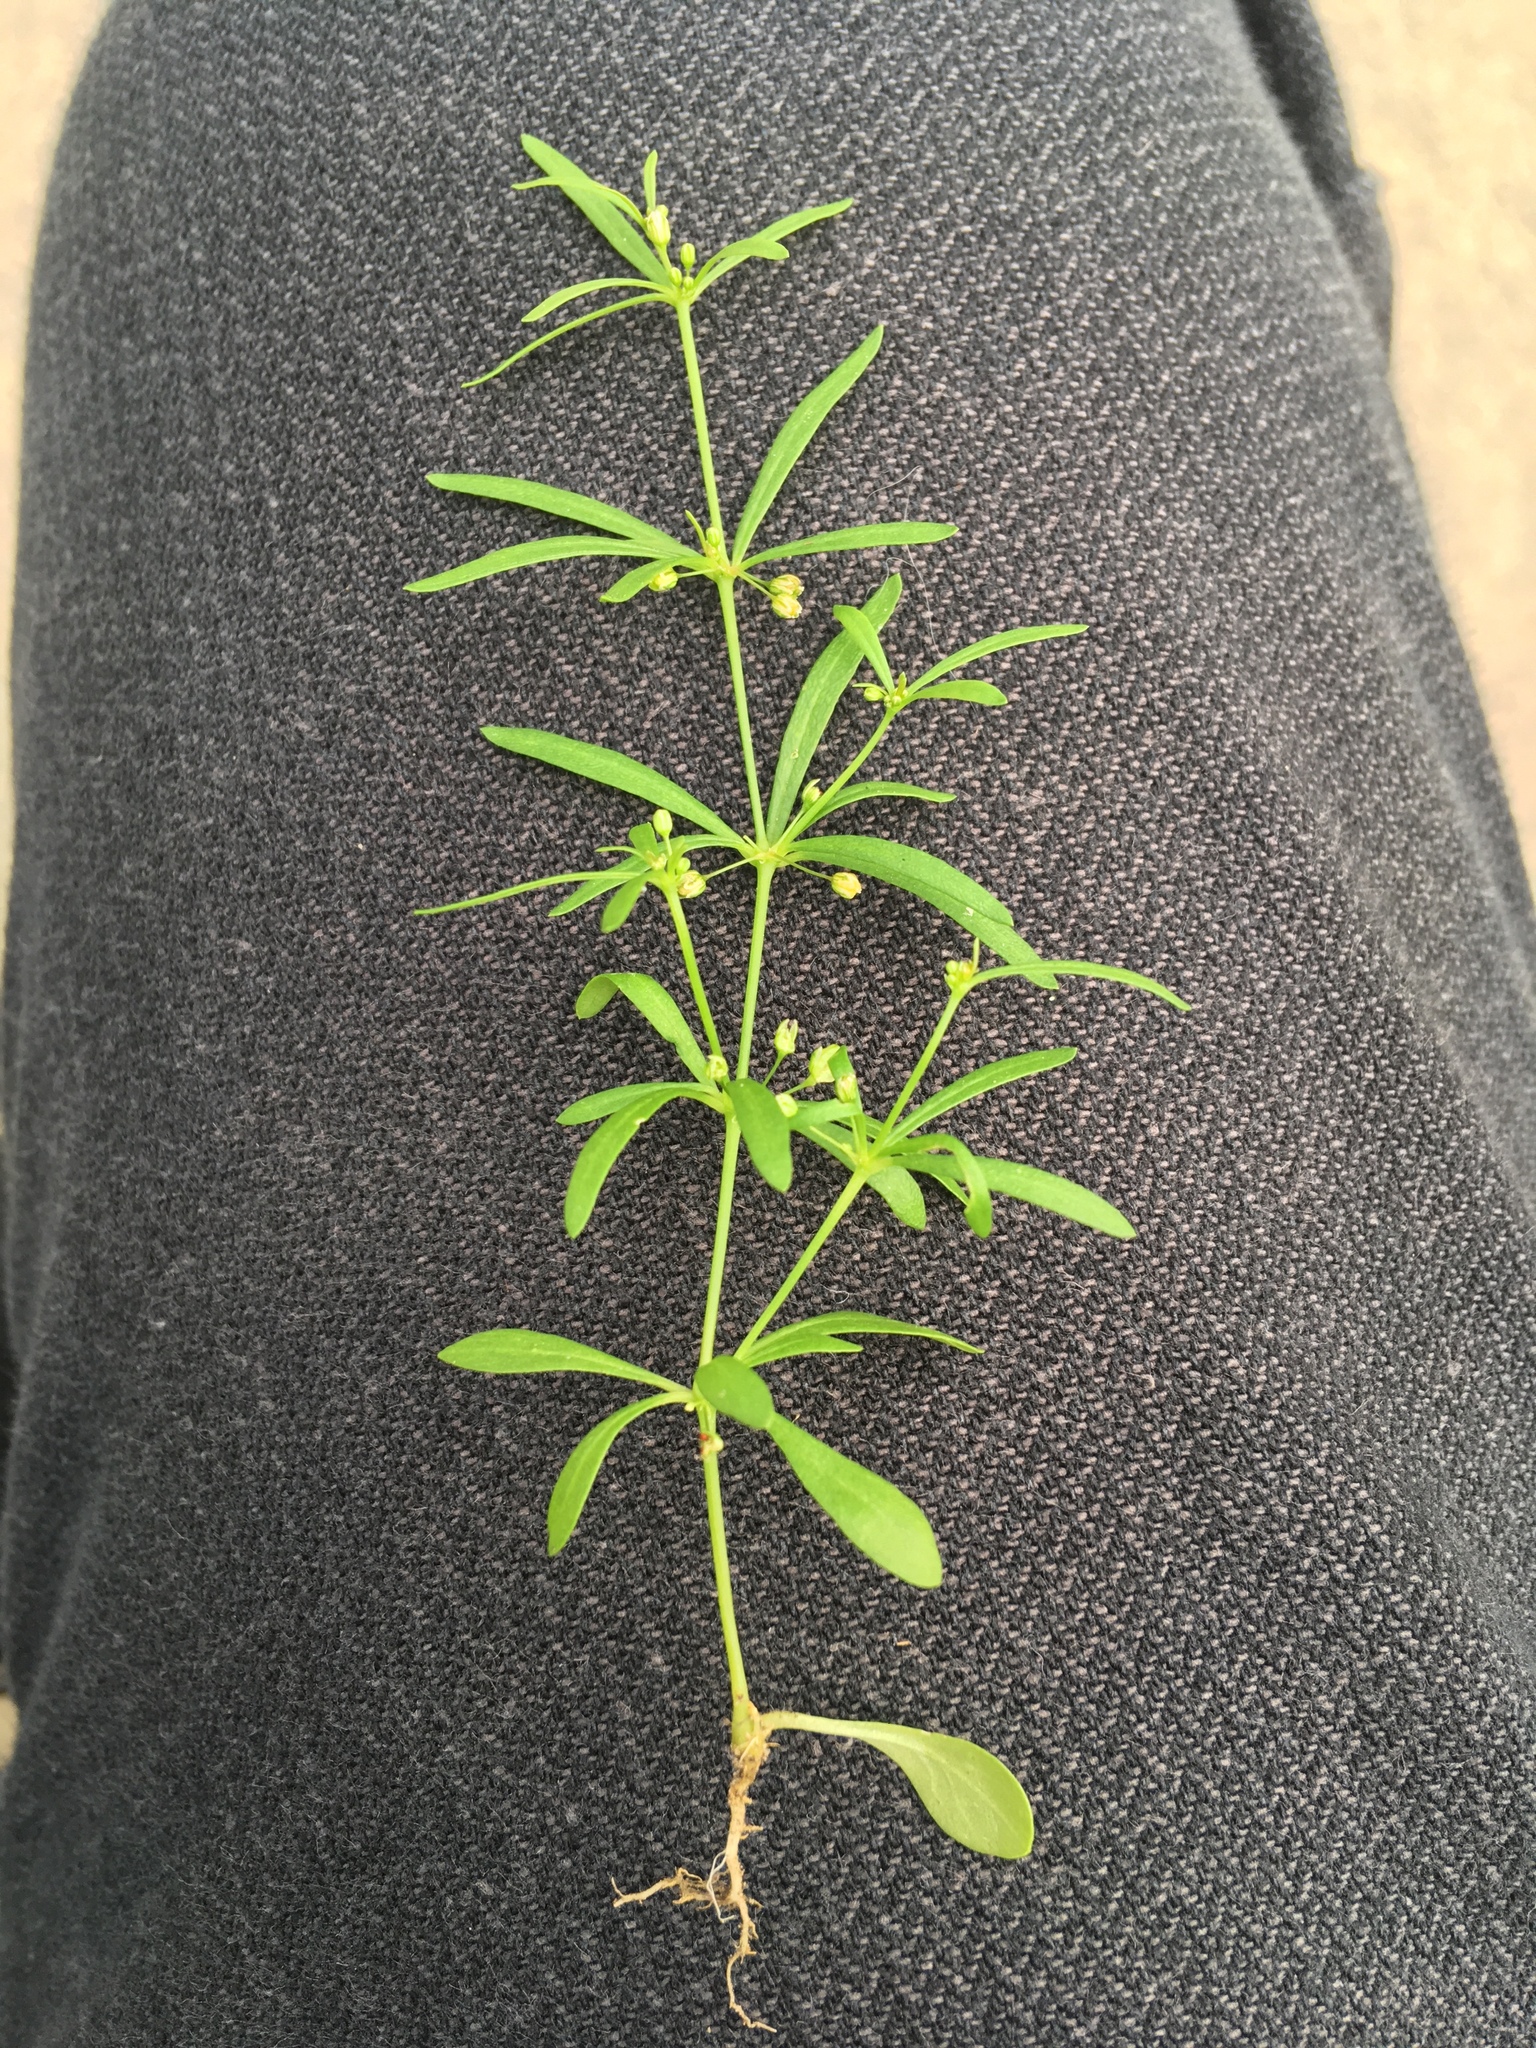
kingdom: Plantae
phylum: Tracheophyta
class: Magnoliopsida
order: Caryophyllales
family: Molluginaceae
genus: Mollugo
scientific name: Mollugo verticillata
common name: Green carpetweed
